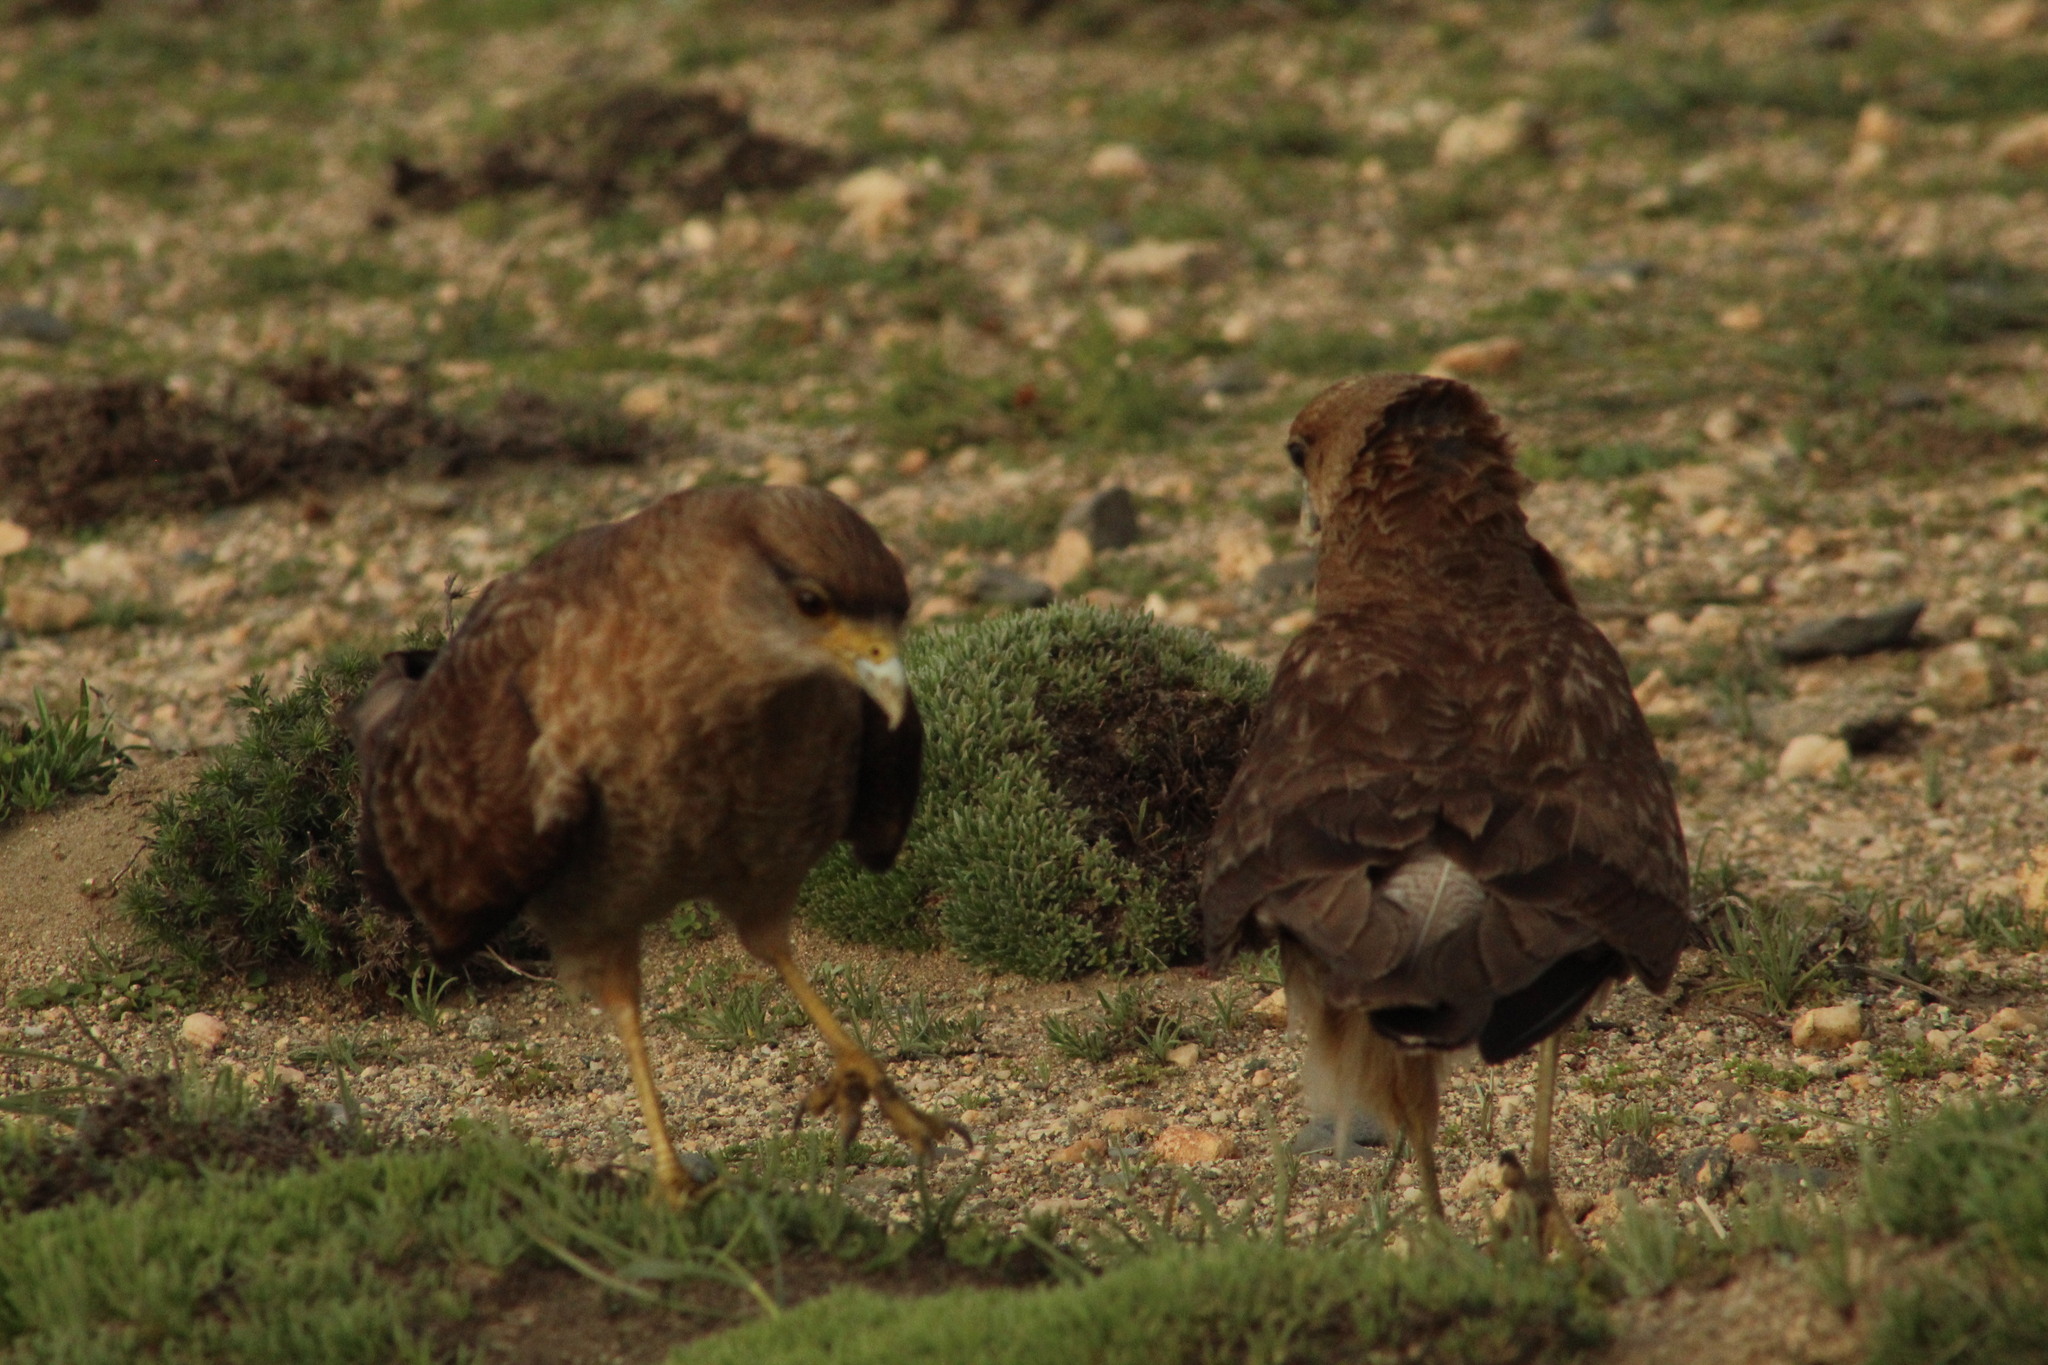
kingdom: Animalia
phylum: Chordata
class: Aves
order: Falconiformes
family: Falconidae
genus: Daptrius
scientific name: Daptrius
